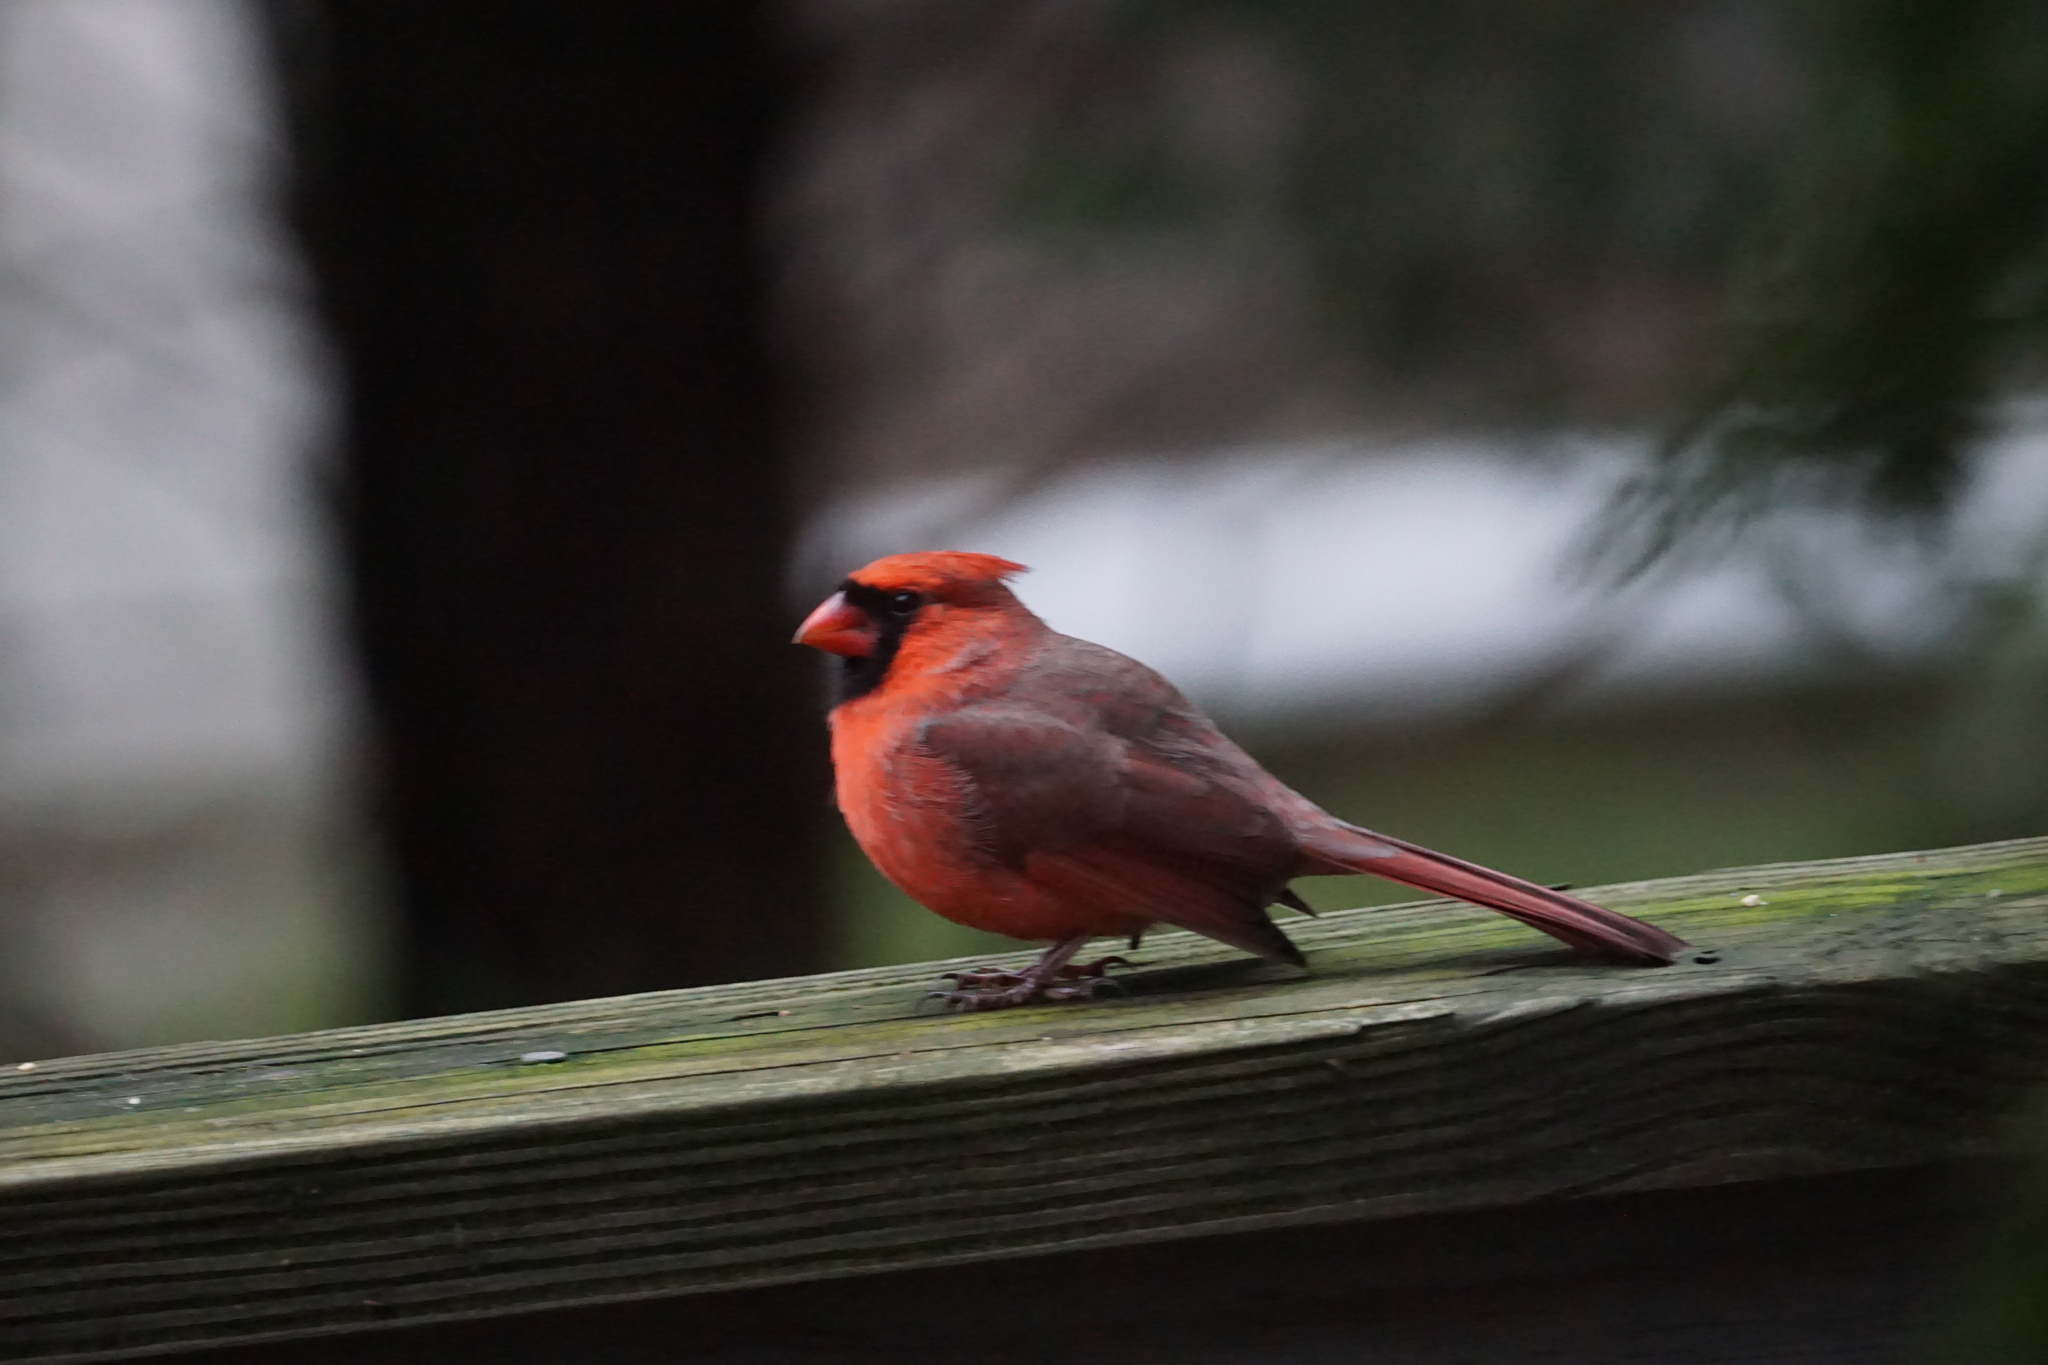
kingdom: Animalia
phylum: Chordata
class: Aves
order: Passeriformes
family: Cardinalidae
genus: Cardinalis
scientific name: Cardinalis cardinalis
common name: Northern cardinal
